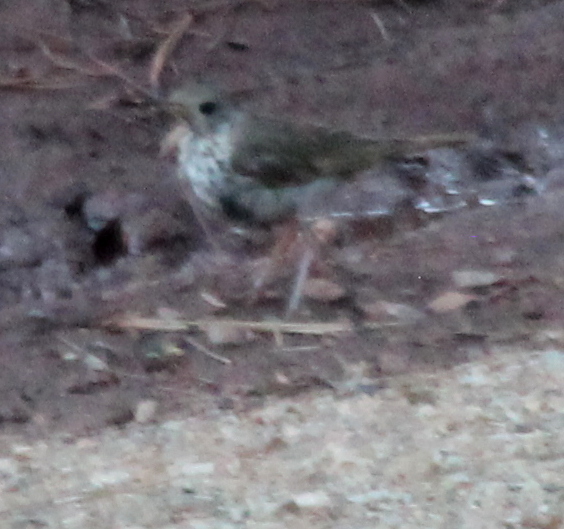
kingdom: Animalia
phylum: Chordata
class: Aves
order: Passeriformes
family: Turdidae
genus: Catharus
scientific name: Catharus guttatus
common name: Hermit thrush
